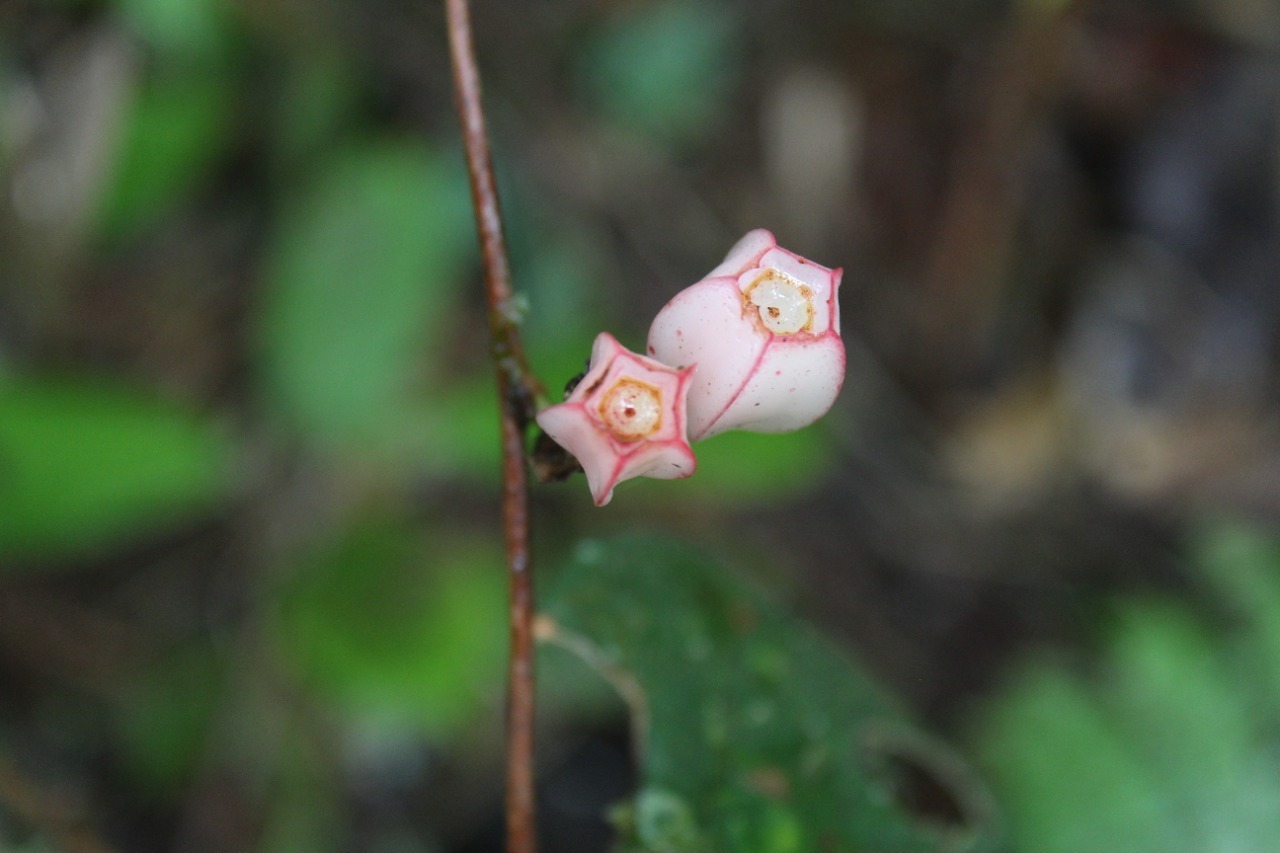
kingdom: Plantae
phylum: Tracheophyta
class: Magnoliopsida
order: Ericales
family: Ericaceae
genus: Macleania
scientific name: Macleania rotundifolia
